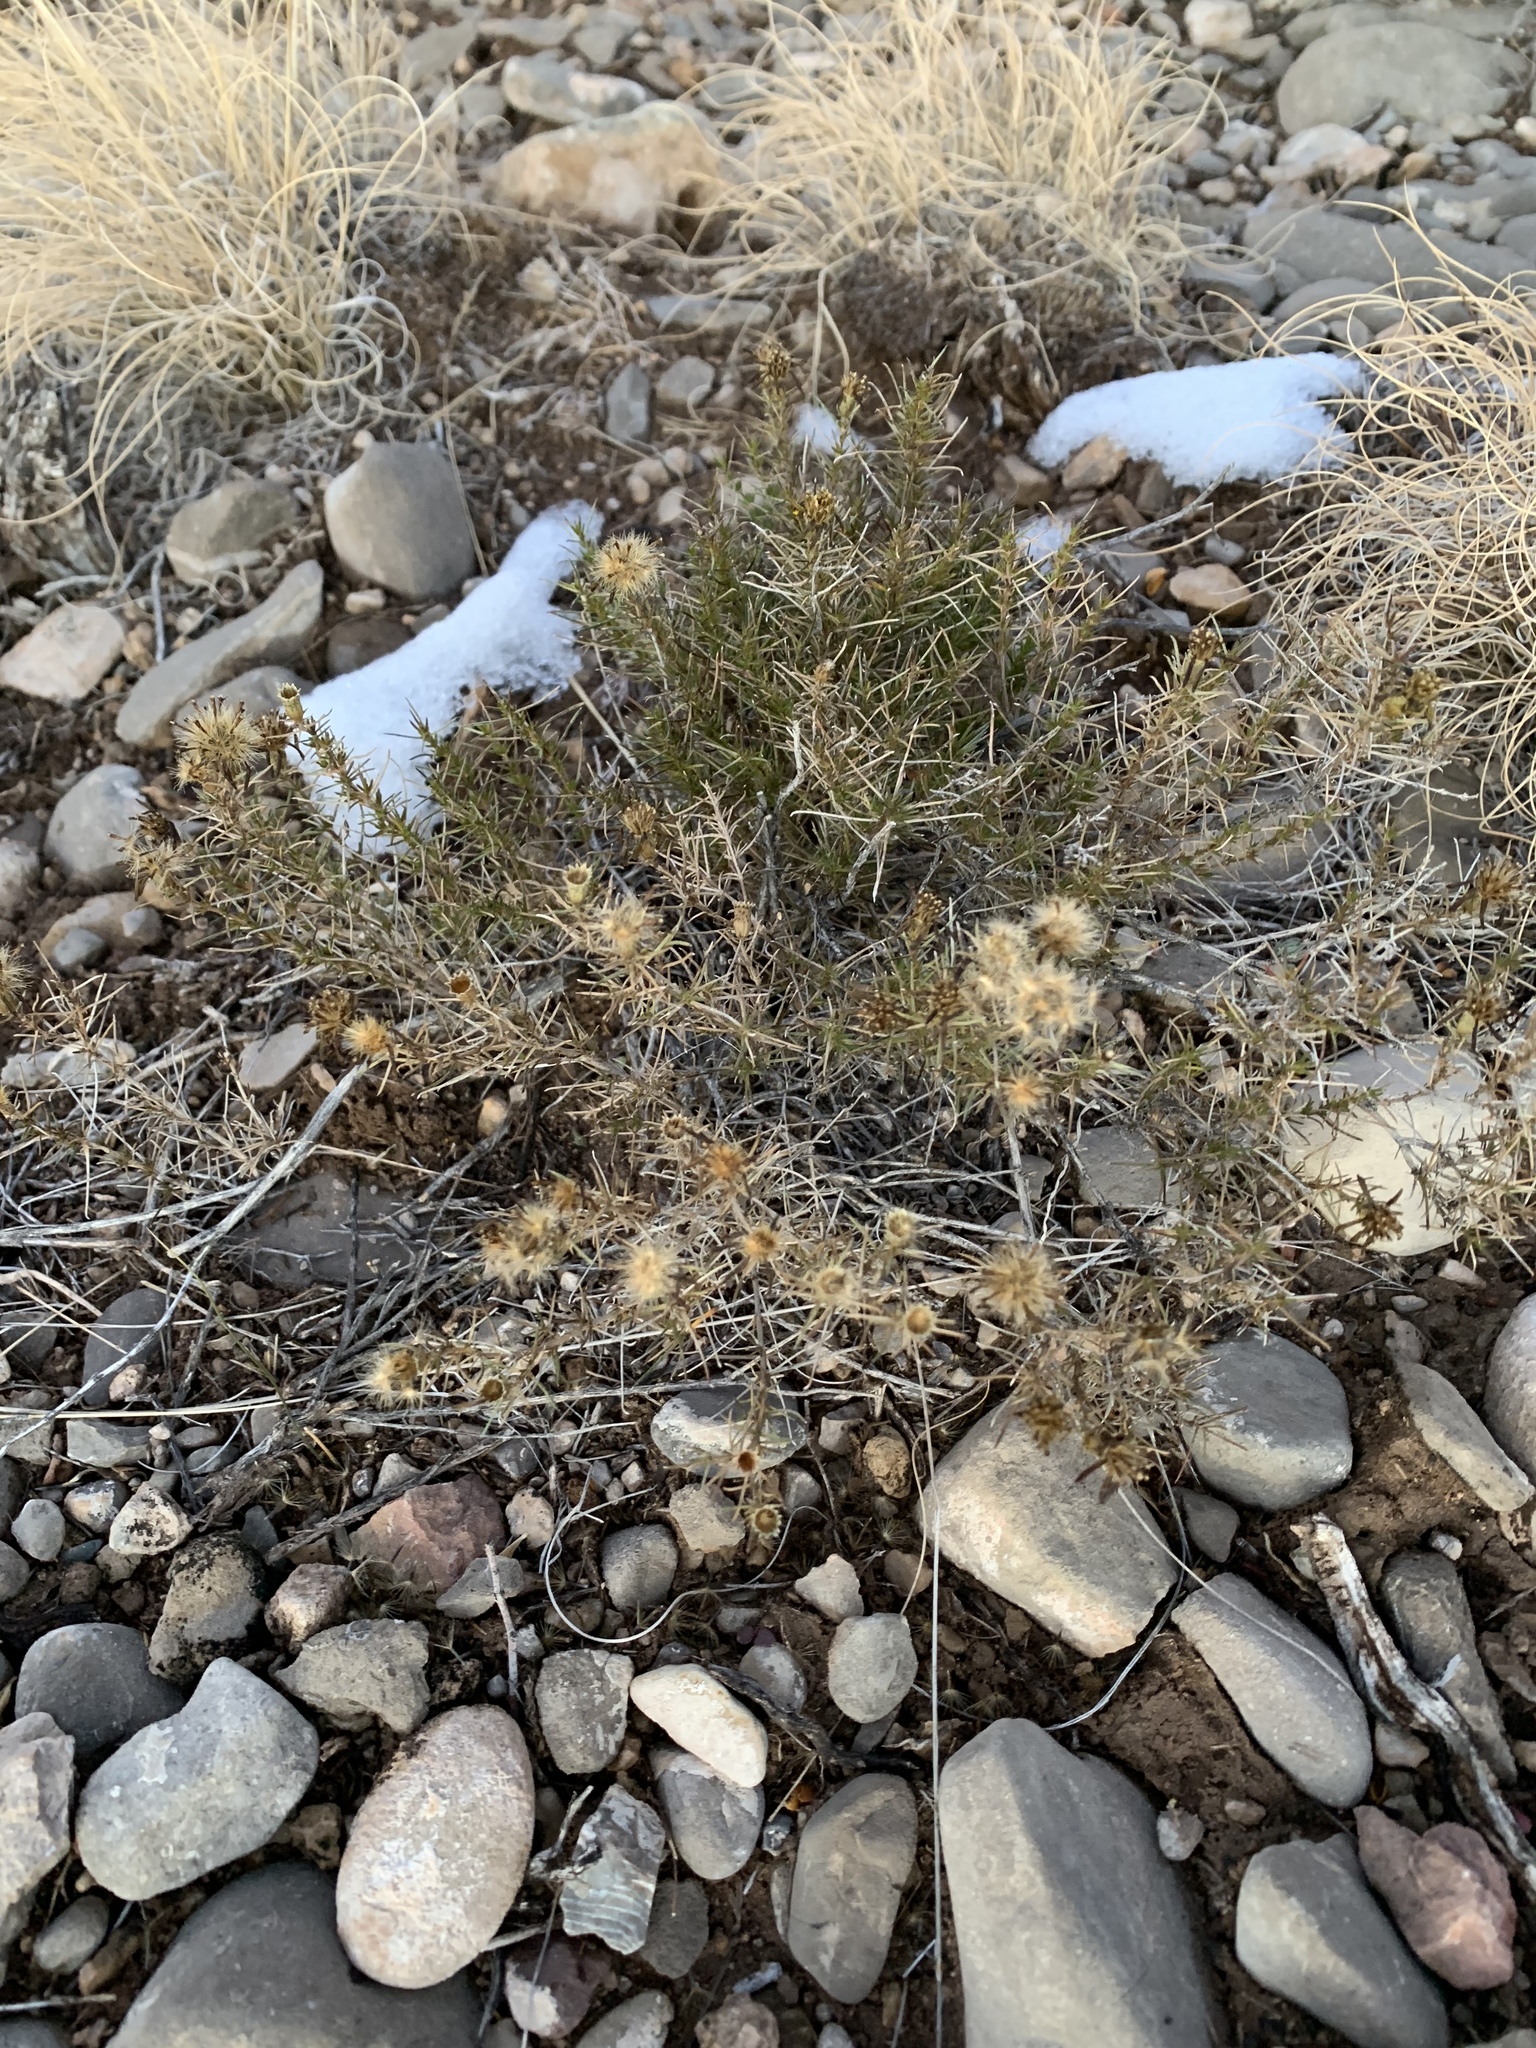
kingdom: Plantae
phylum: Tracheophyta
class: Magnoliopsida
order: Asterales
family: Asteraceae
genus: Thymophylla
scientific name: Thymophylla acerosa
